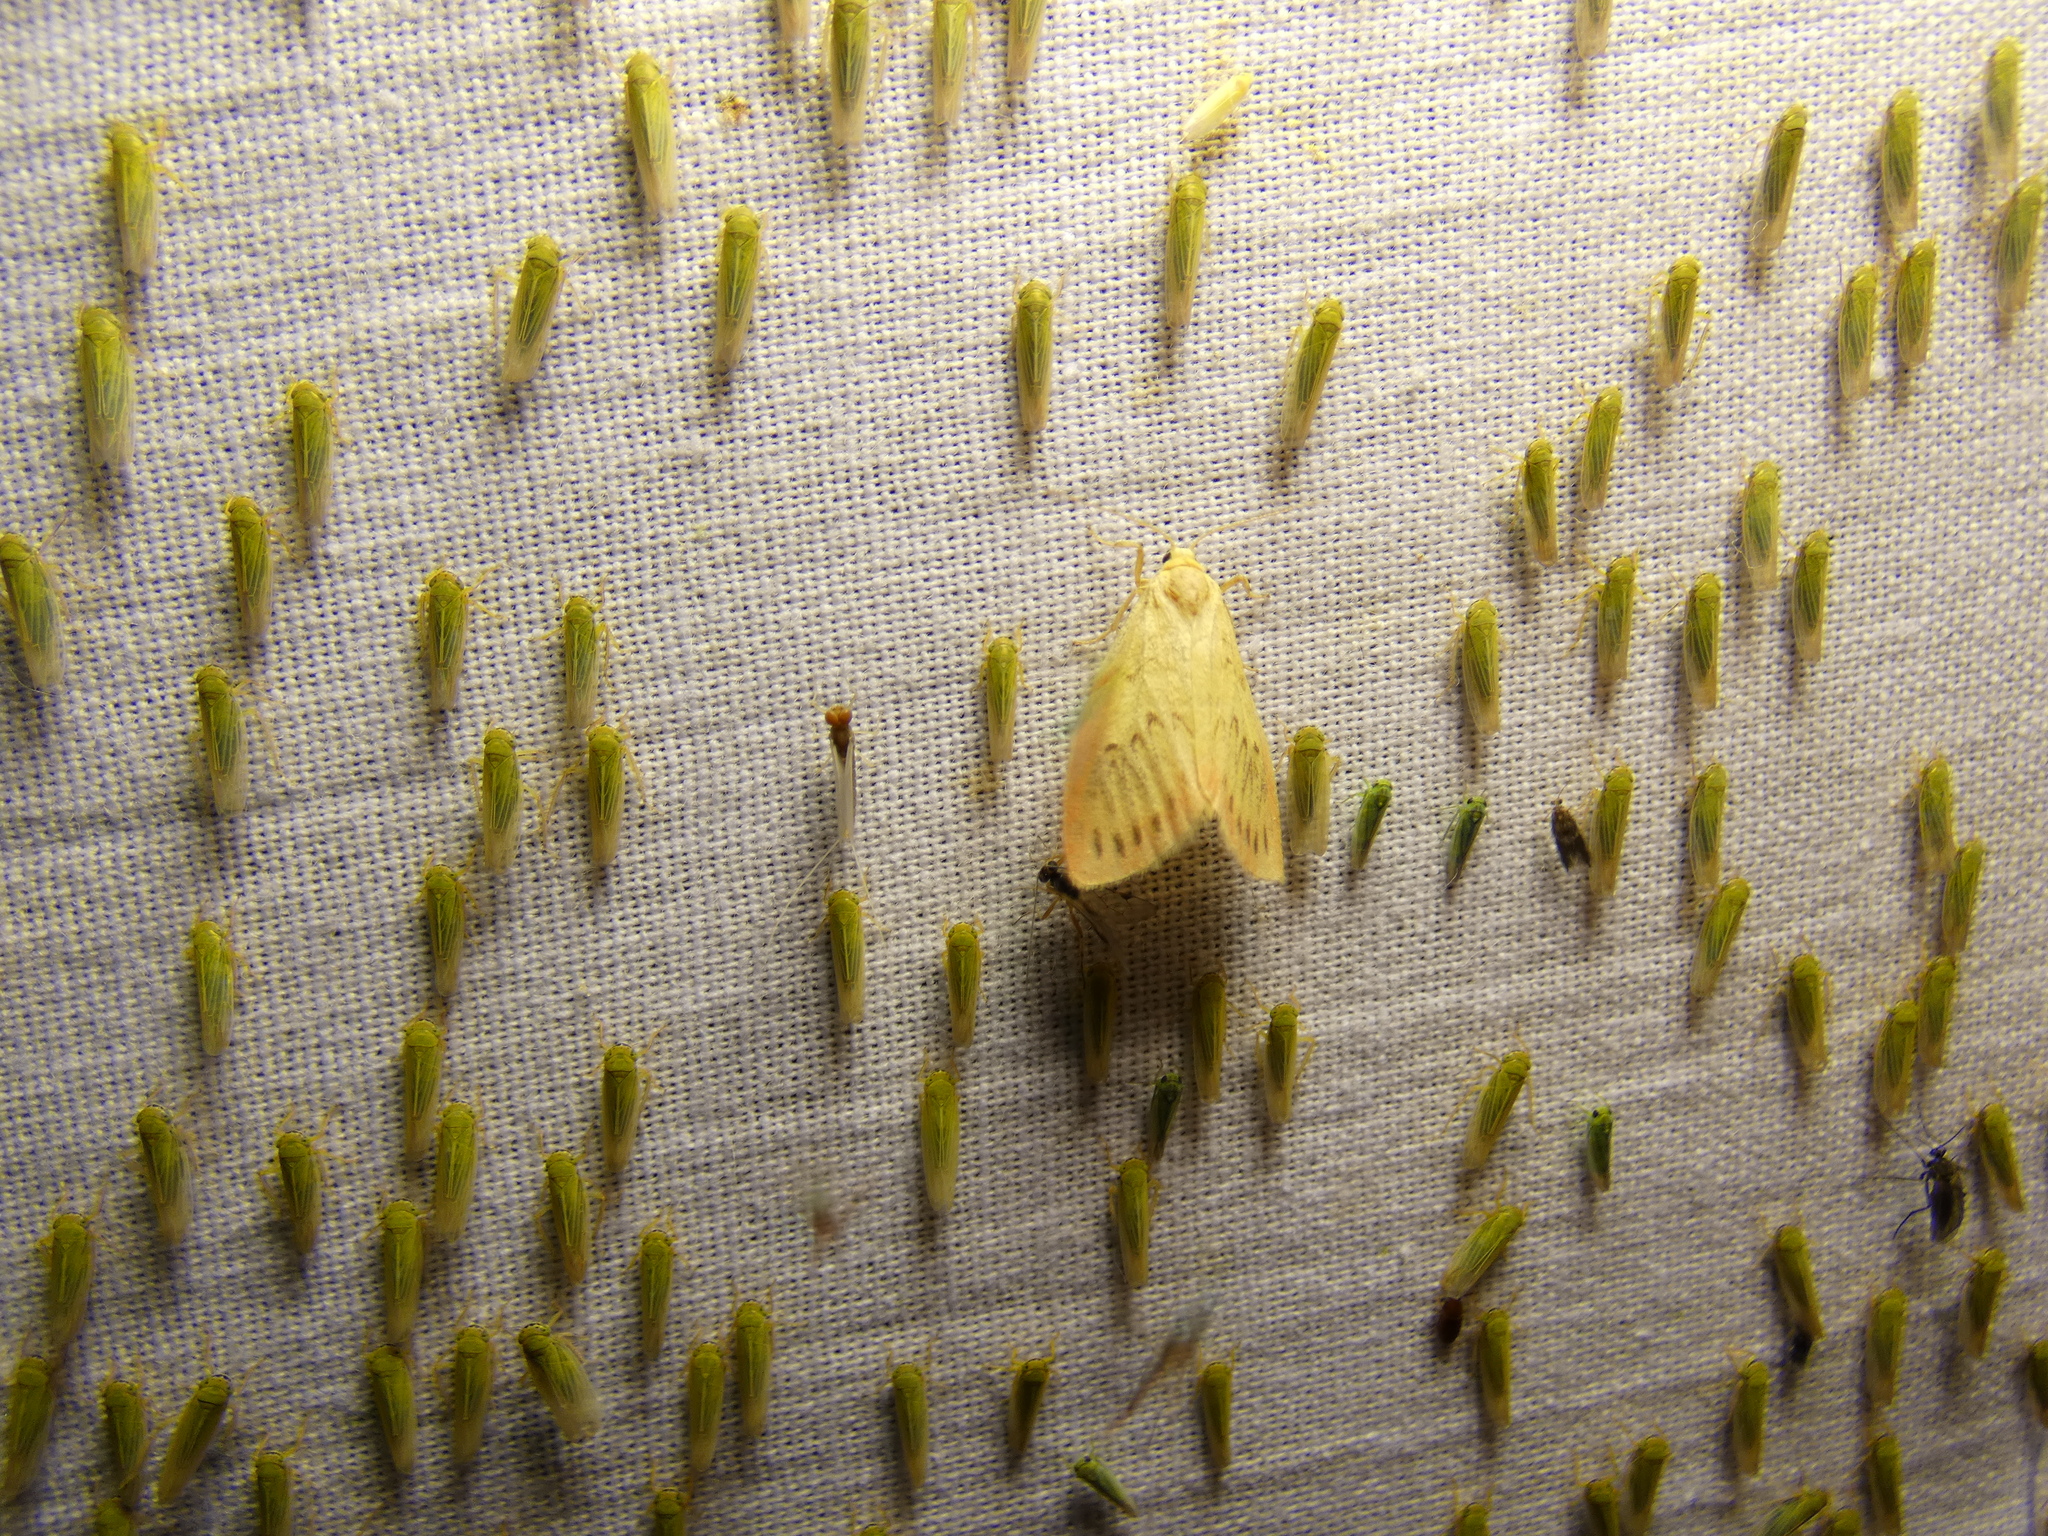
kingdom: Animalia
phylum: Arthropoda
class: Insecta
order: Lepidoptera
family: Erebidae
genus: Miltochrista
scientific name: Miltochrista miniata
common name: Rosy footman
